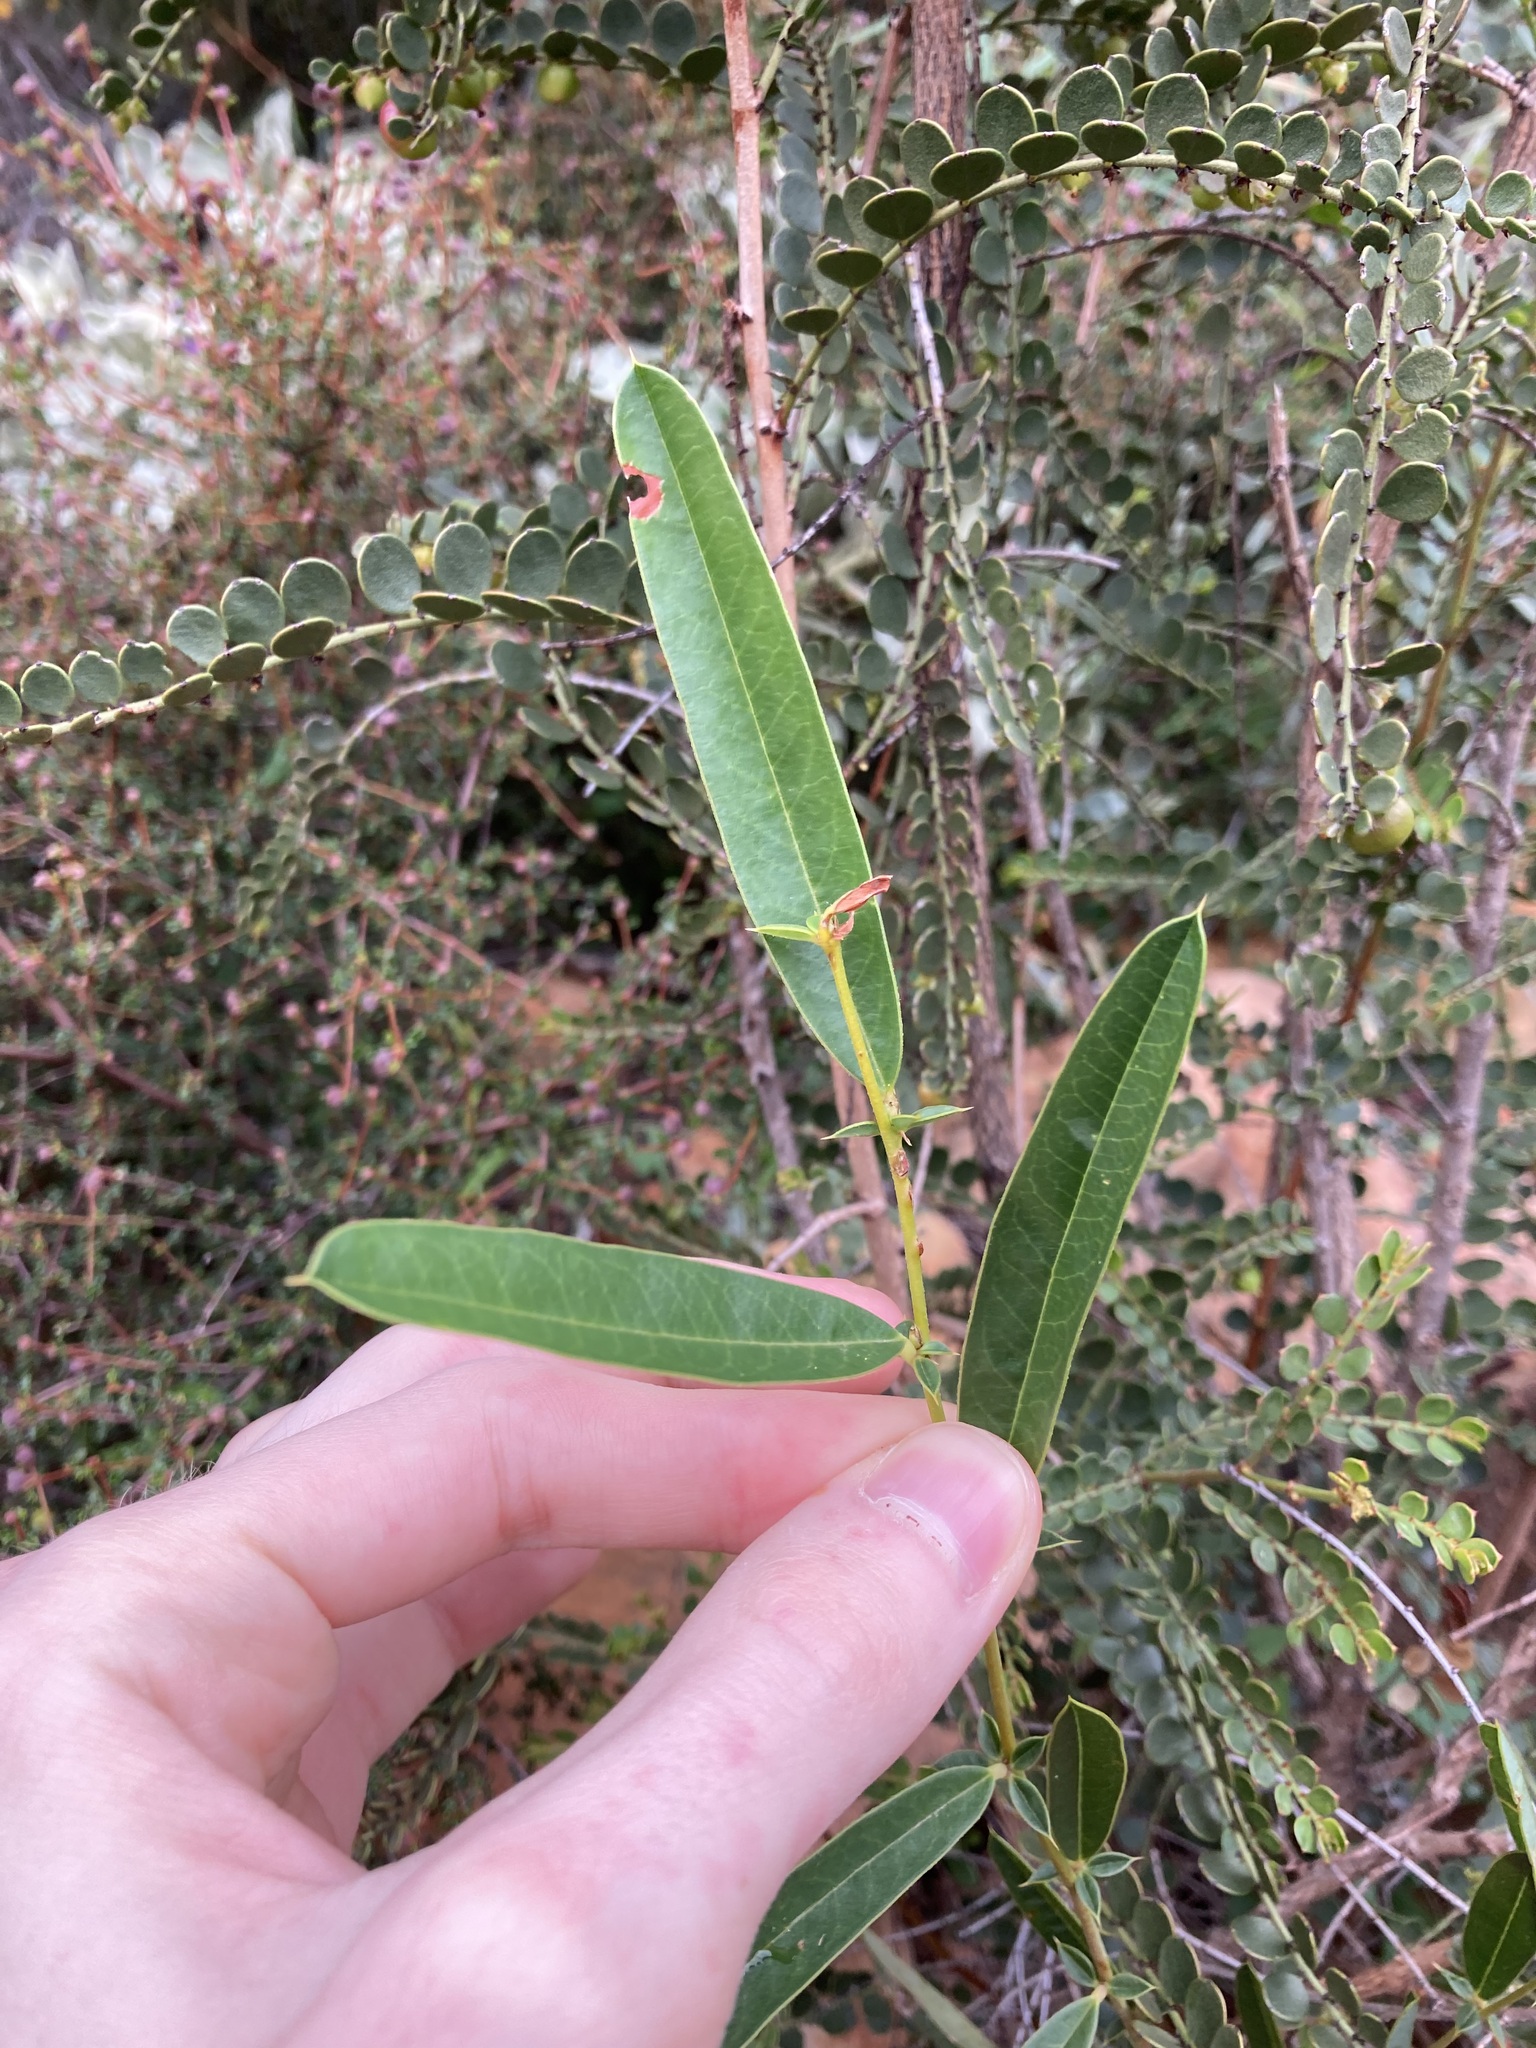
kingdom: Plantae
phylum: Tracheophyta
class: Magnoliopsida
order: Fabales
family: Fabaceae
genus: Labichea
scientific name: Labichea lanceolata
